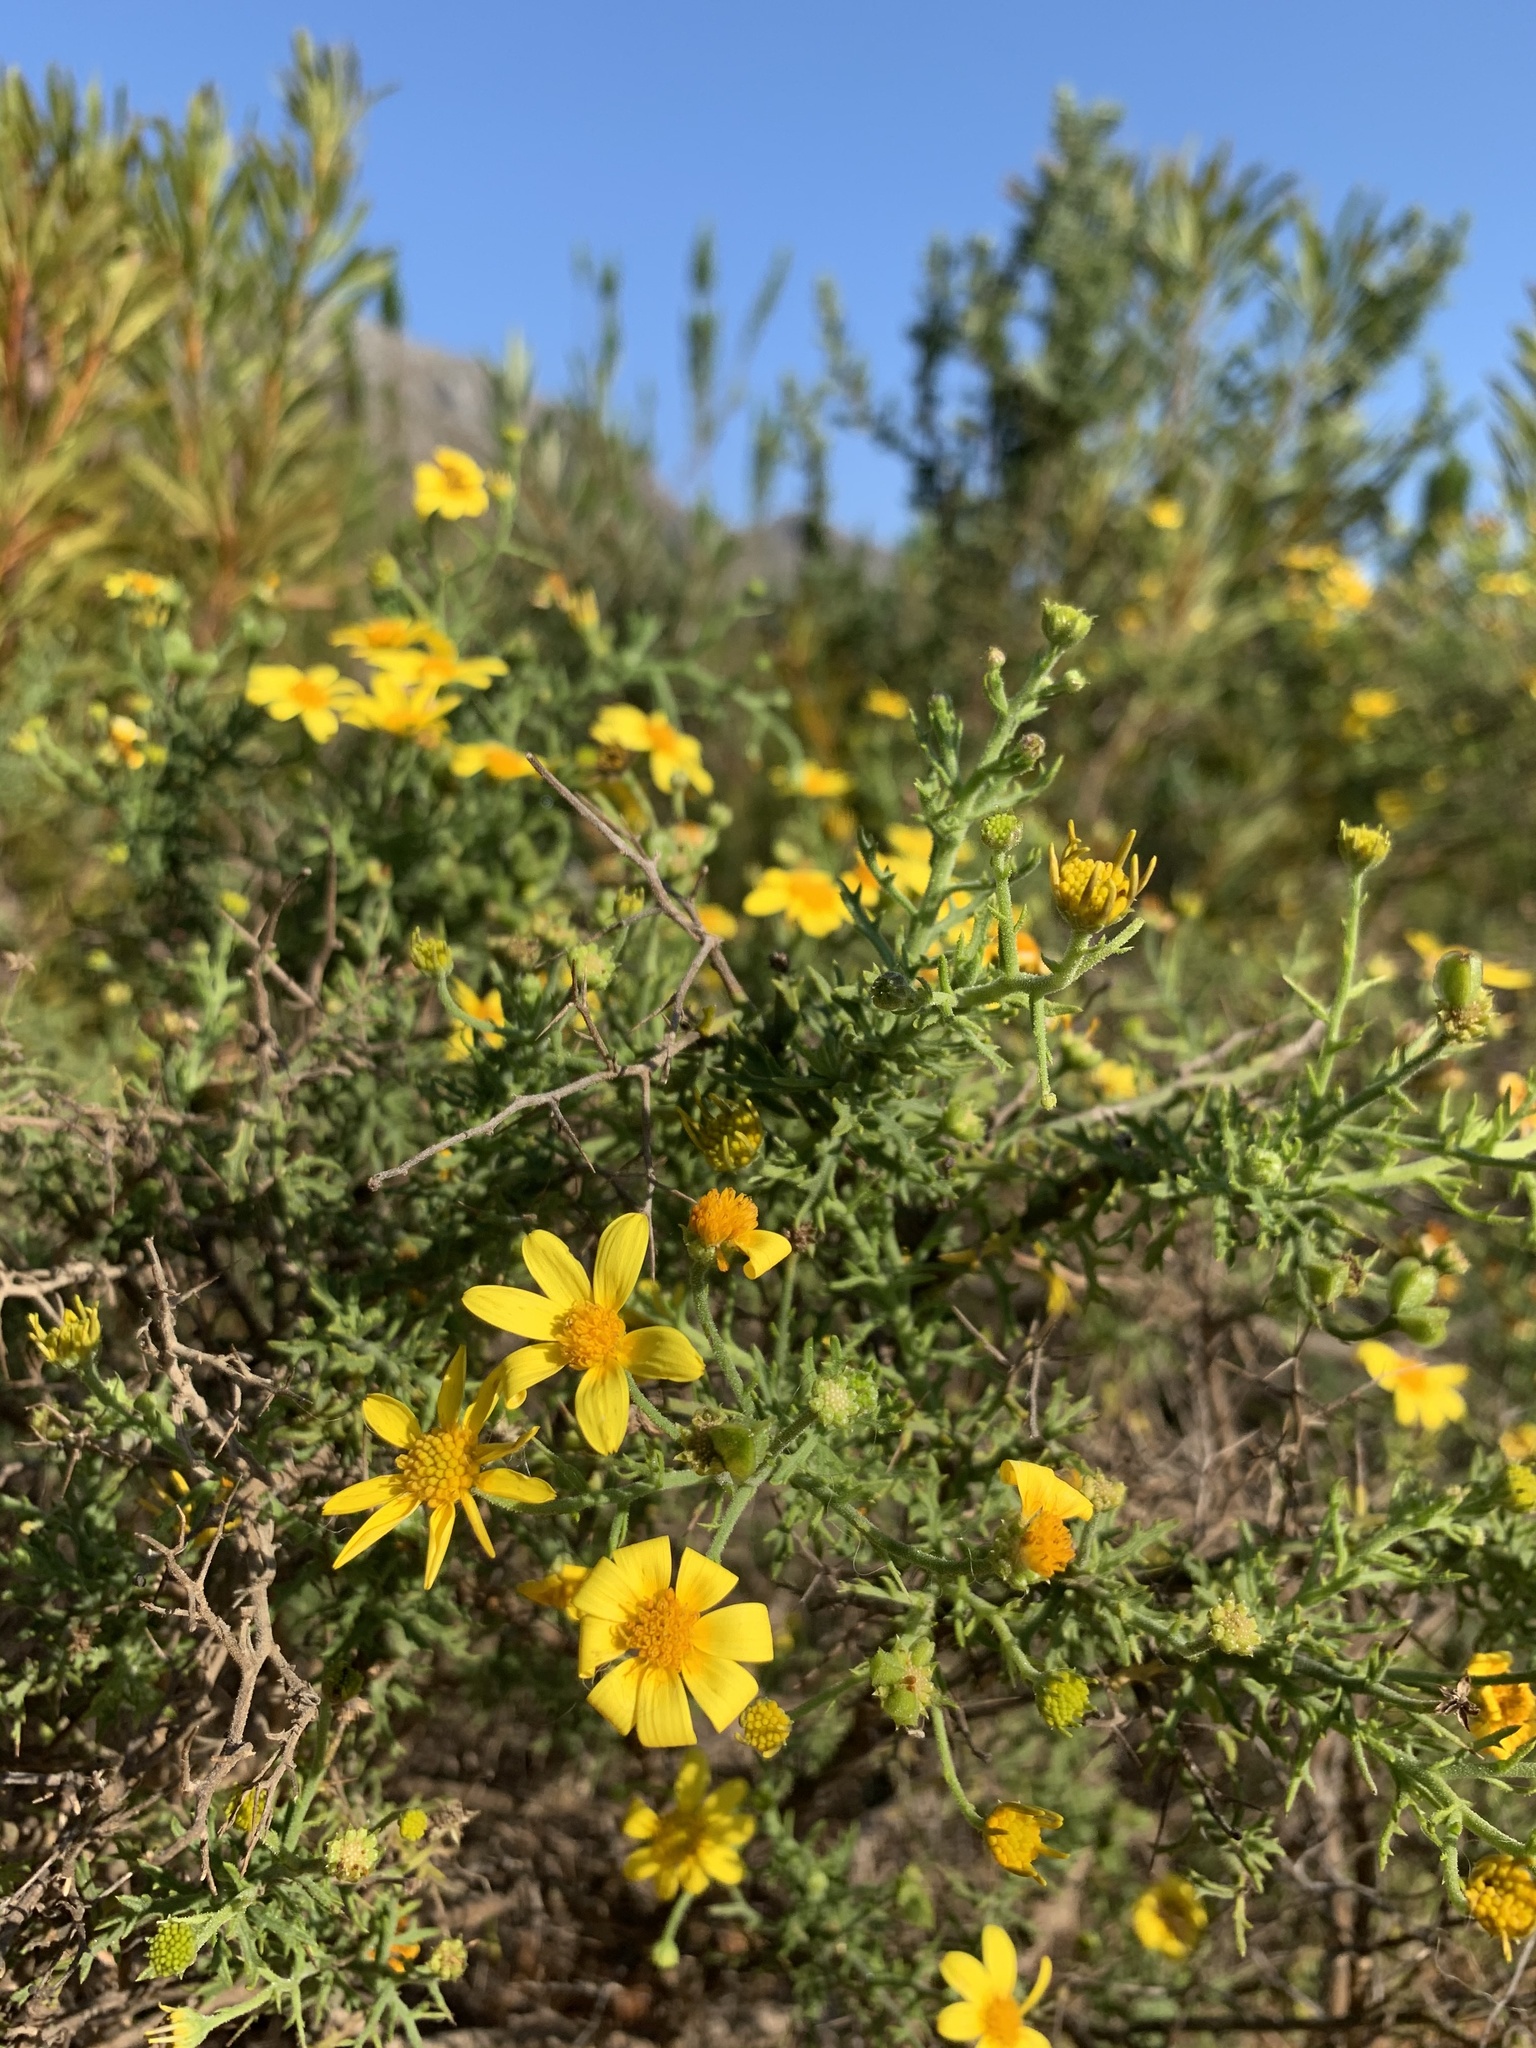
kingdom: Plantae
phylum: Tracheophyta
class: Magnoliopsida
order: Asterales
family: Asteraceae
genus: Osteospermum
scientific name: Osteospermum spinosum
